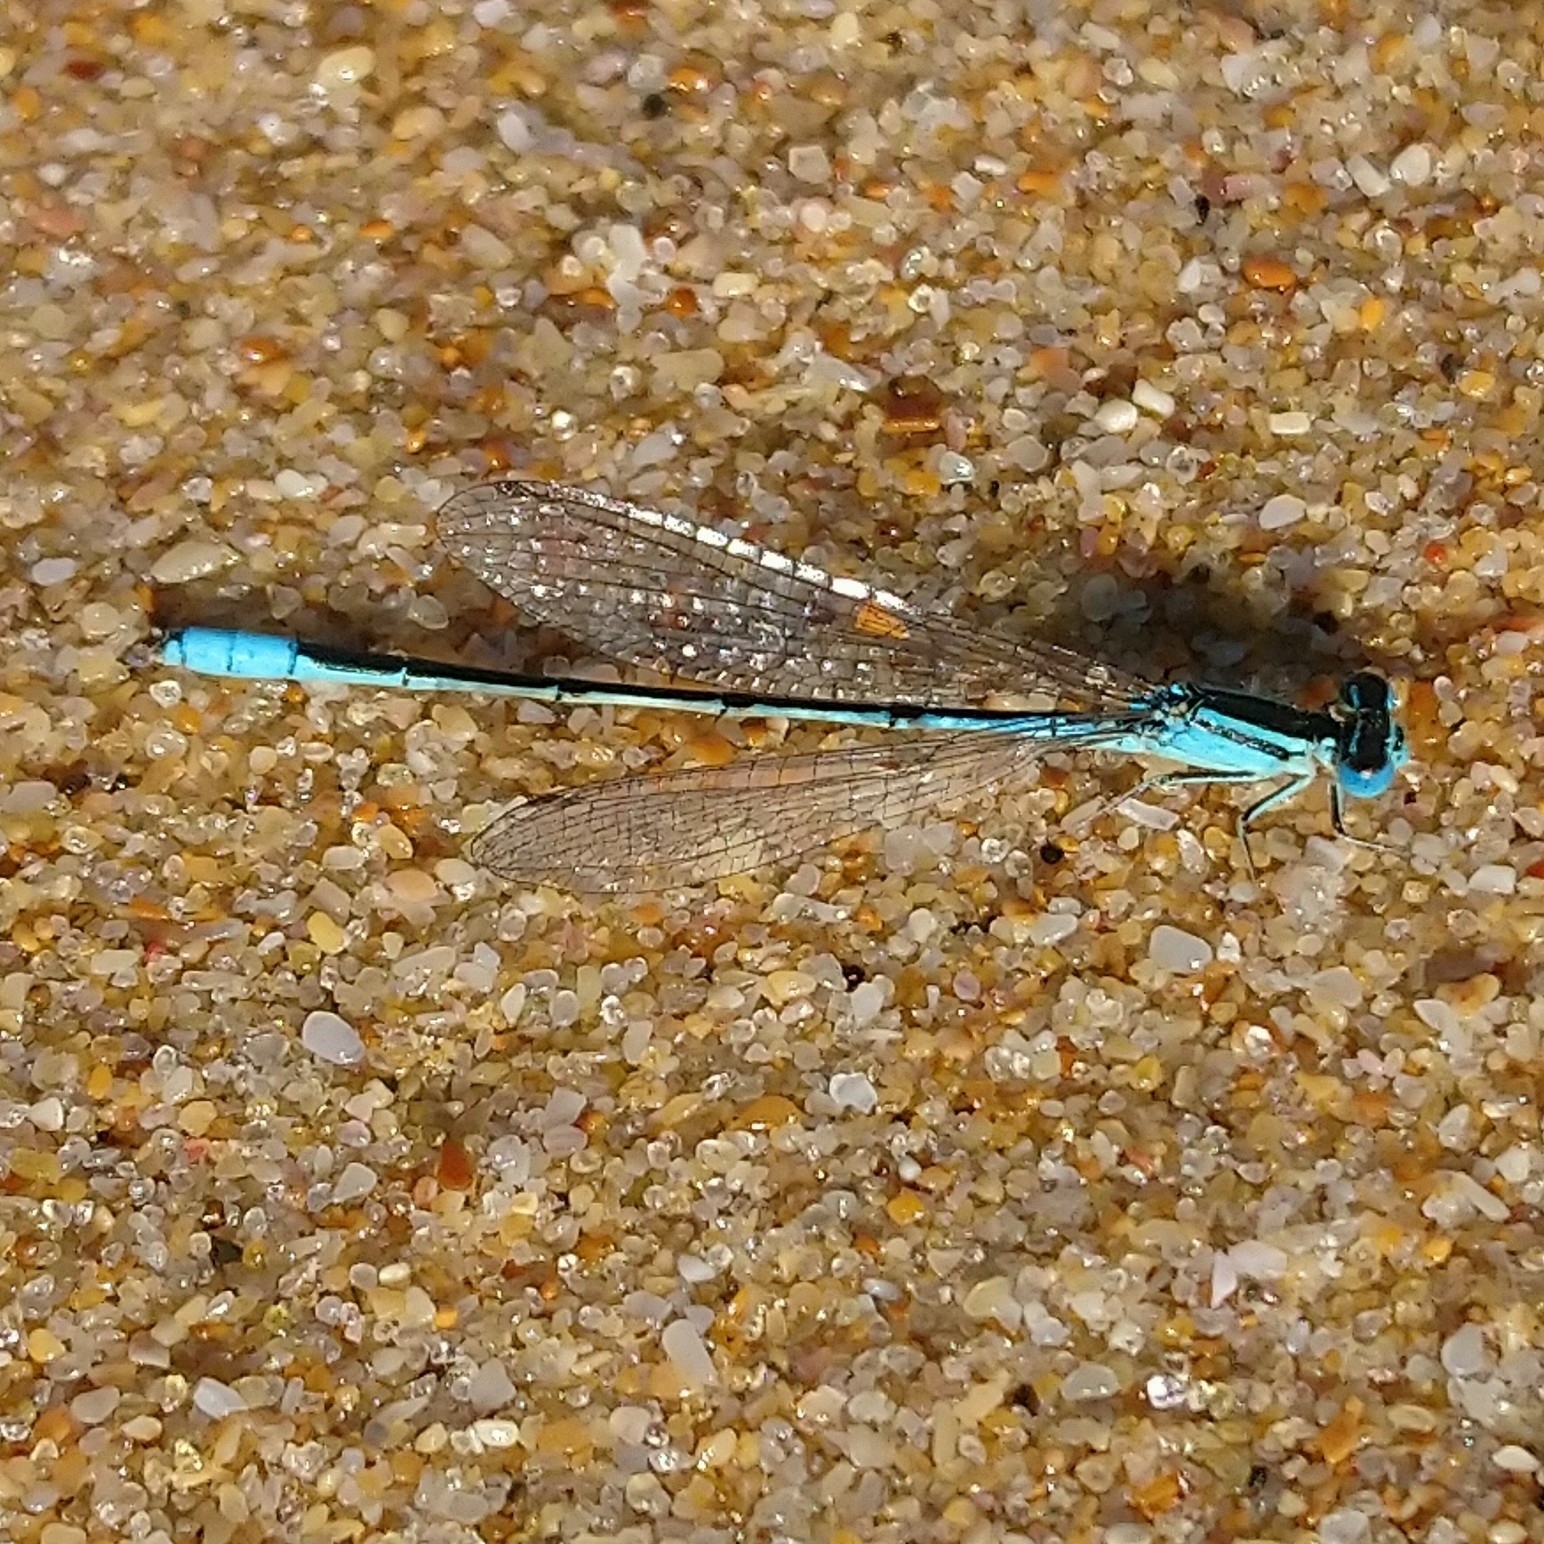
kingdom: Animalia
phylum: Arthropoda
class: Insecta
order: Odonata
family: Coenagrionidae
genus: Africallagma
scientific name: Africallagma glaucum
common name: Swamp bluet
